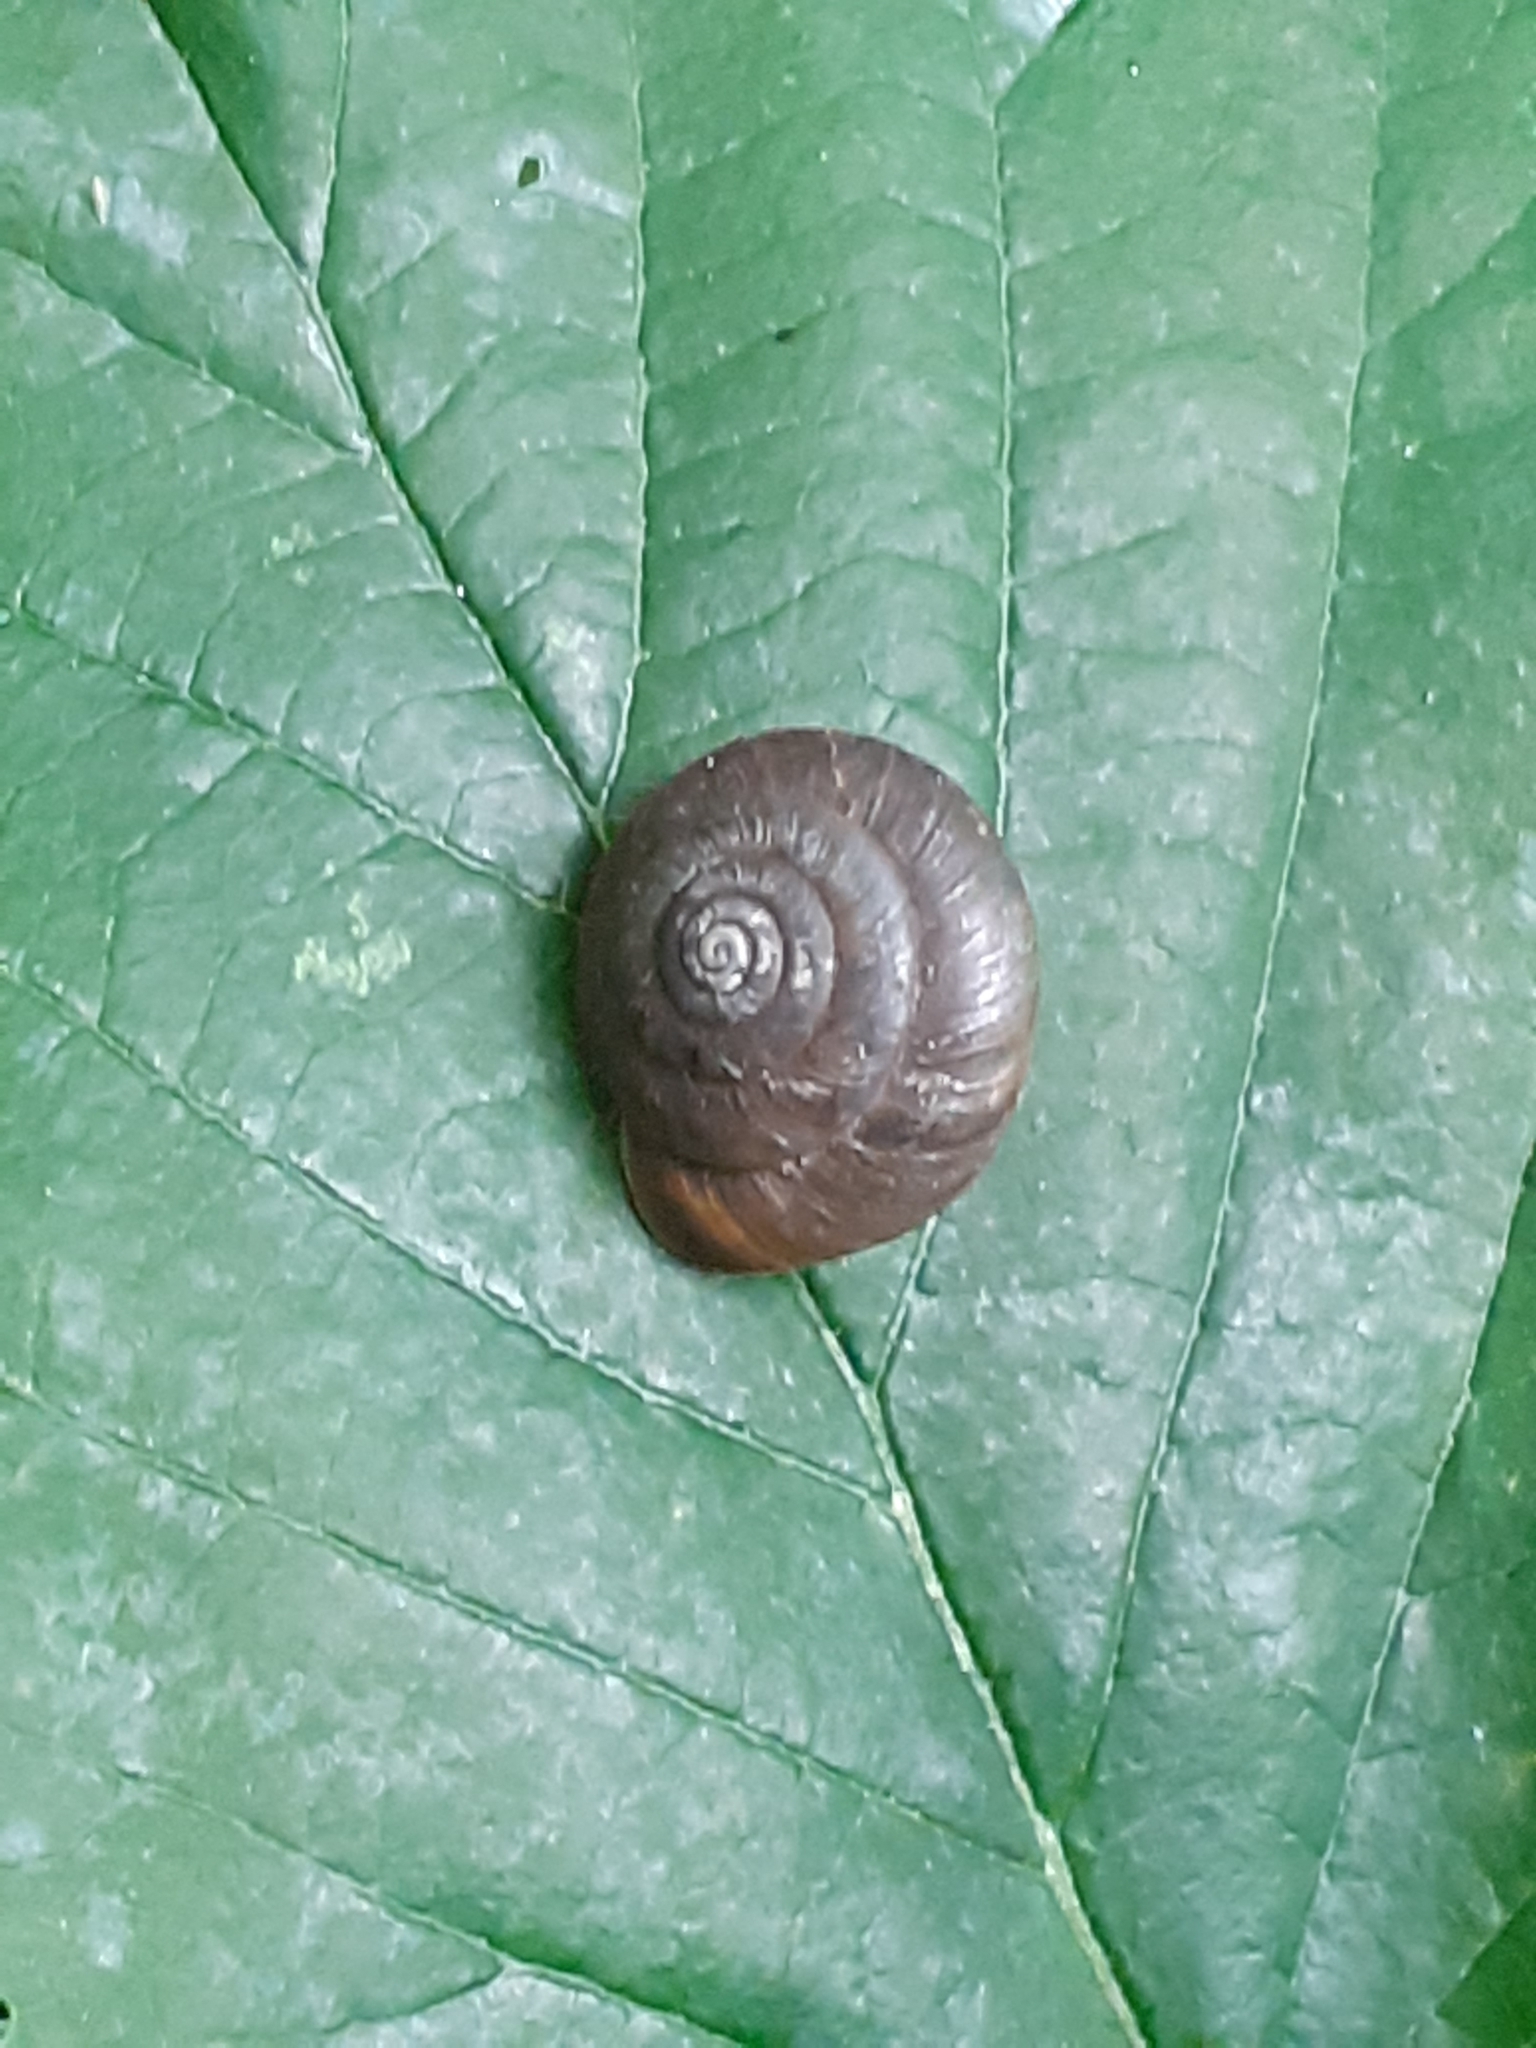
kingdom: Animalia
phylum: Mollusca
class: Gastropoda
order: Stylommatophora
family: Hygromiidae
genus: Trochulus
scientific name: Trochulus striolatus
